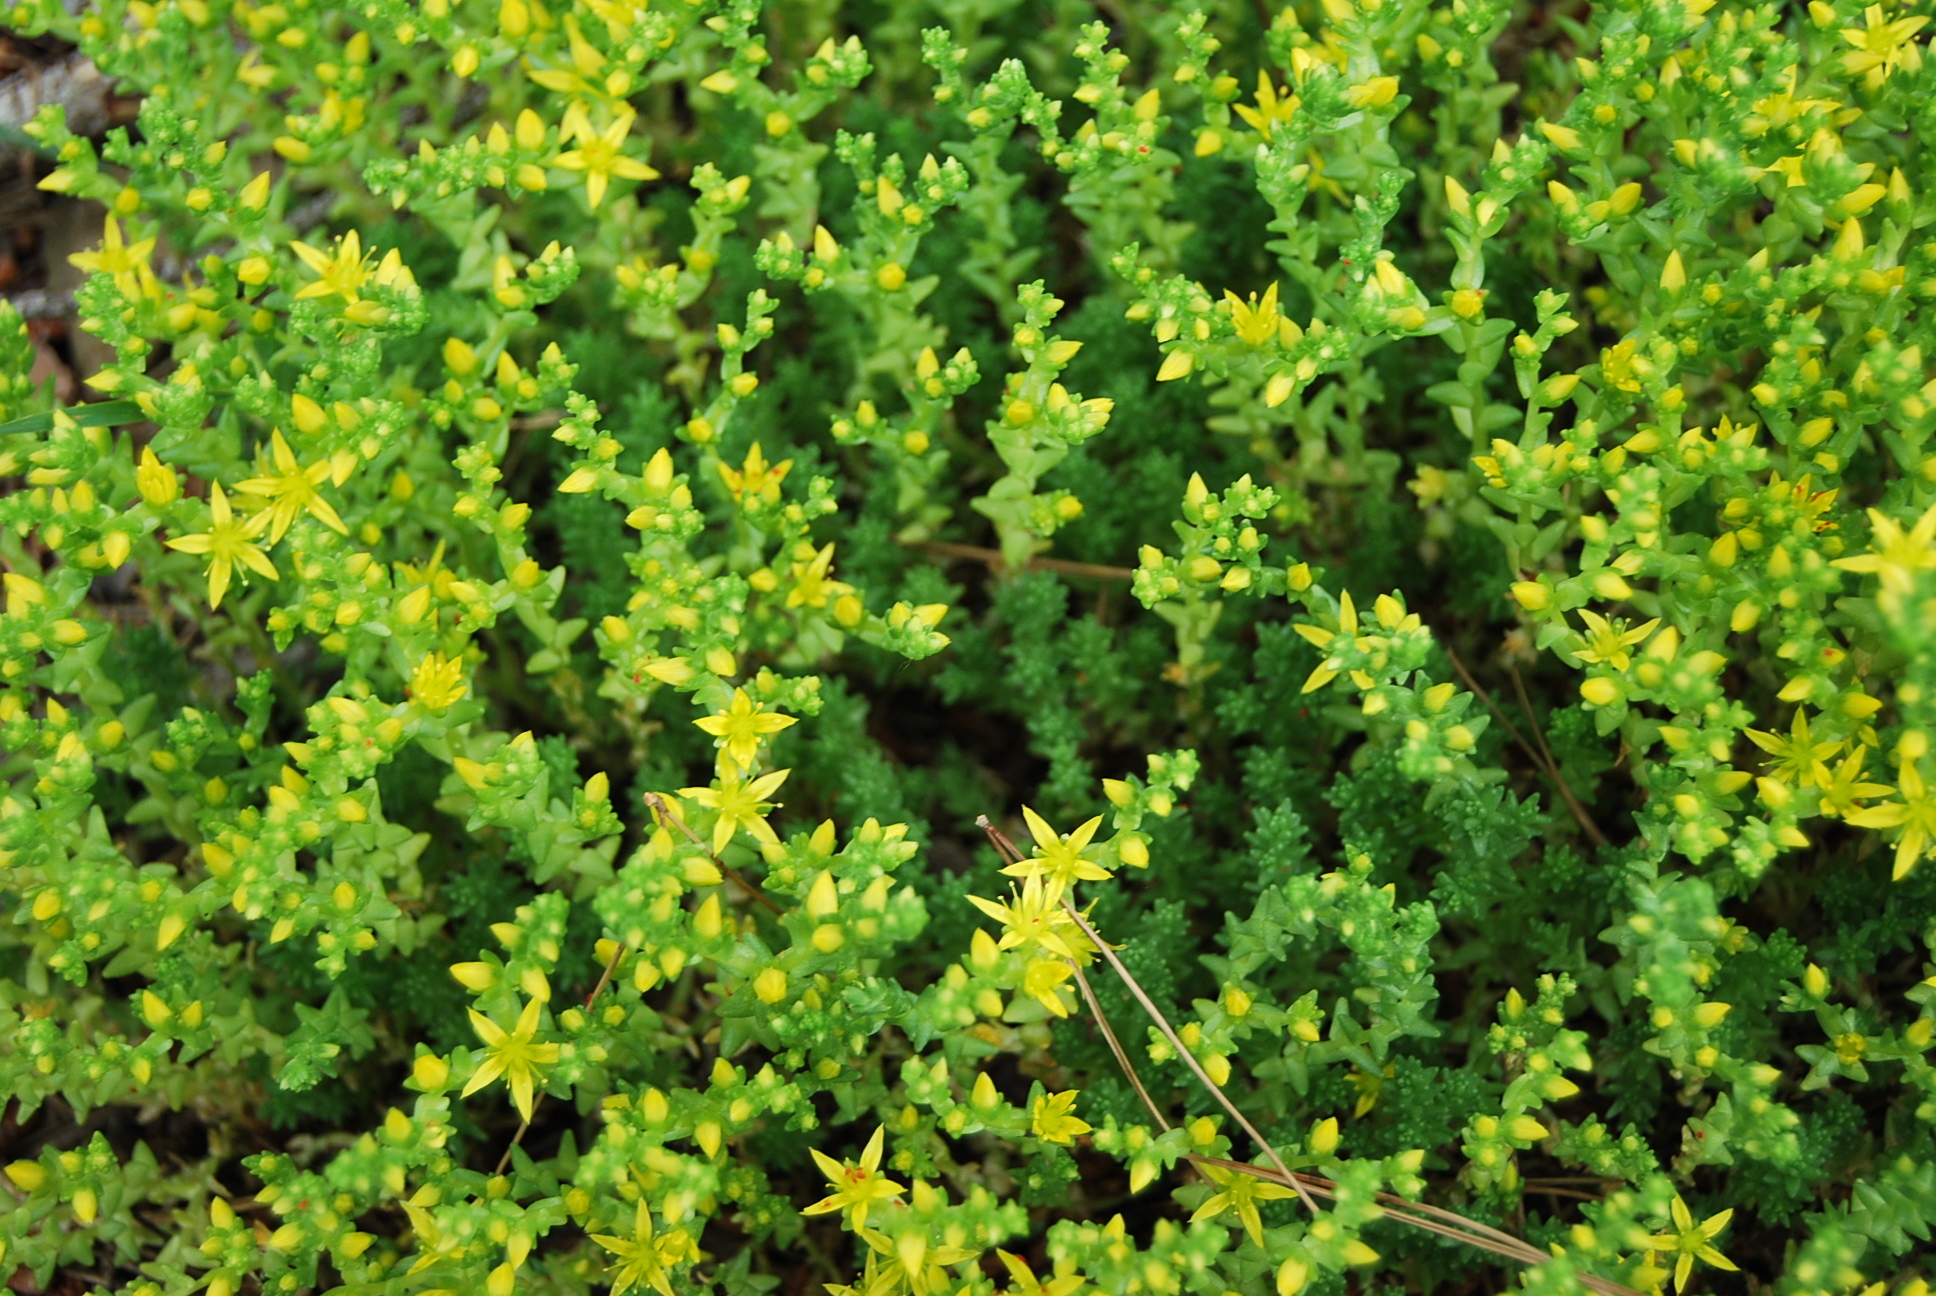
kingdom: Plantae
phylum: Tracheophyta
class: Magnoliopsida
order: Saxifragales
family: Crassulaceae
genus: Sedum
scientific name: Sedum acre
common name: Biting stonecrop
